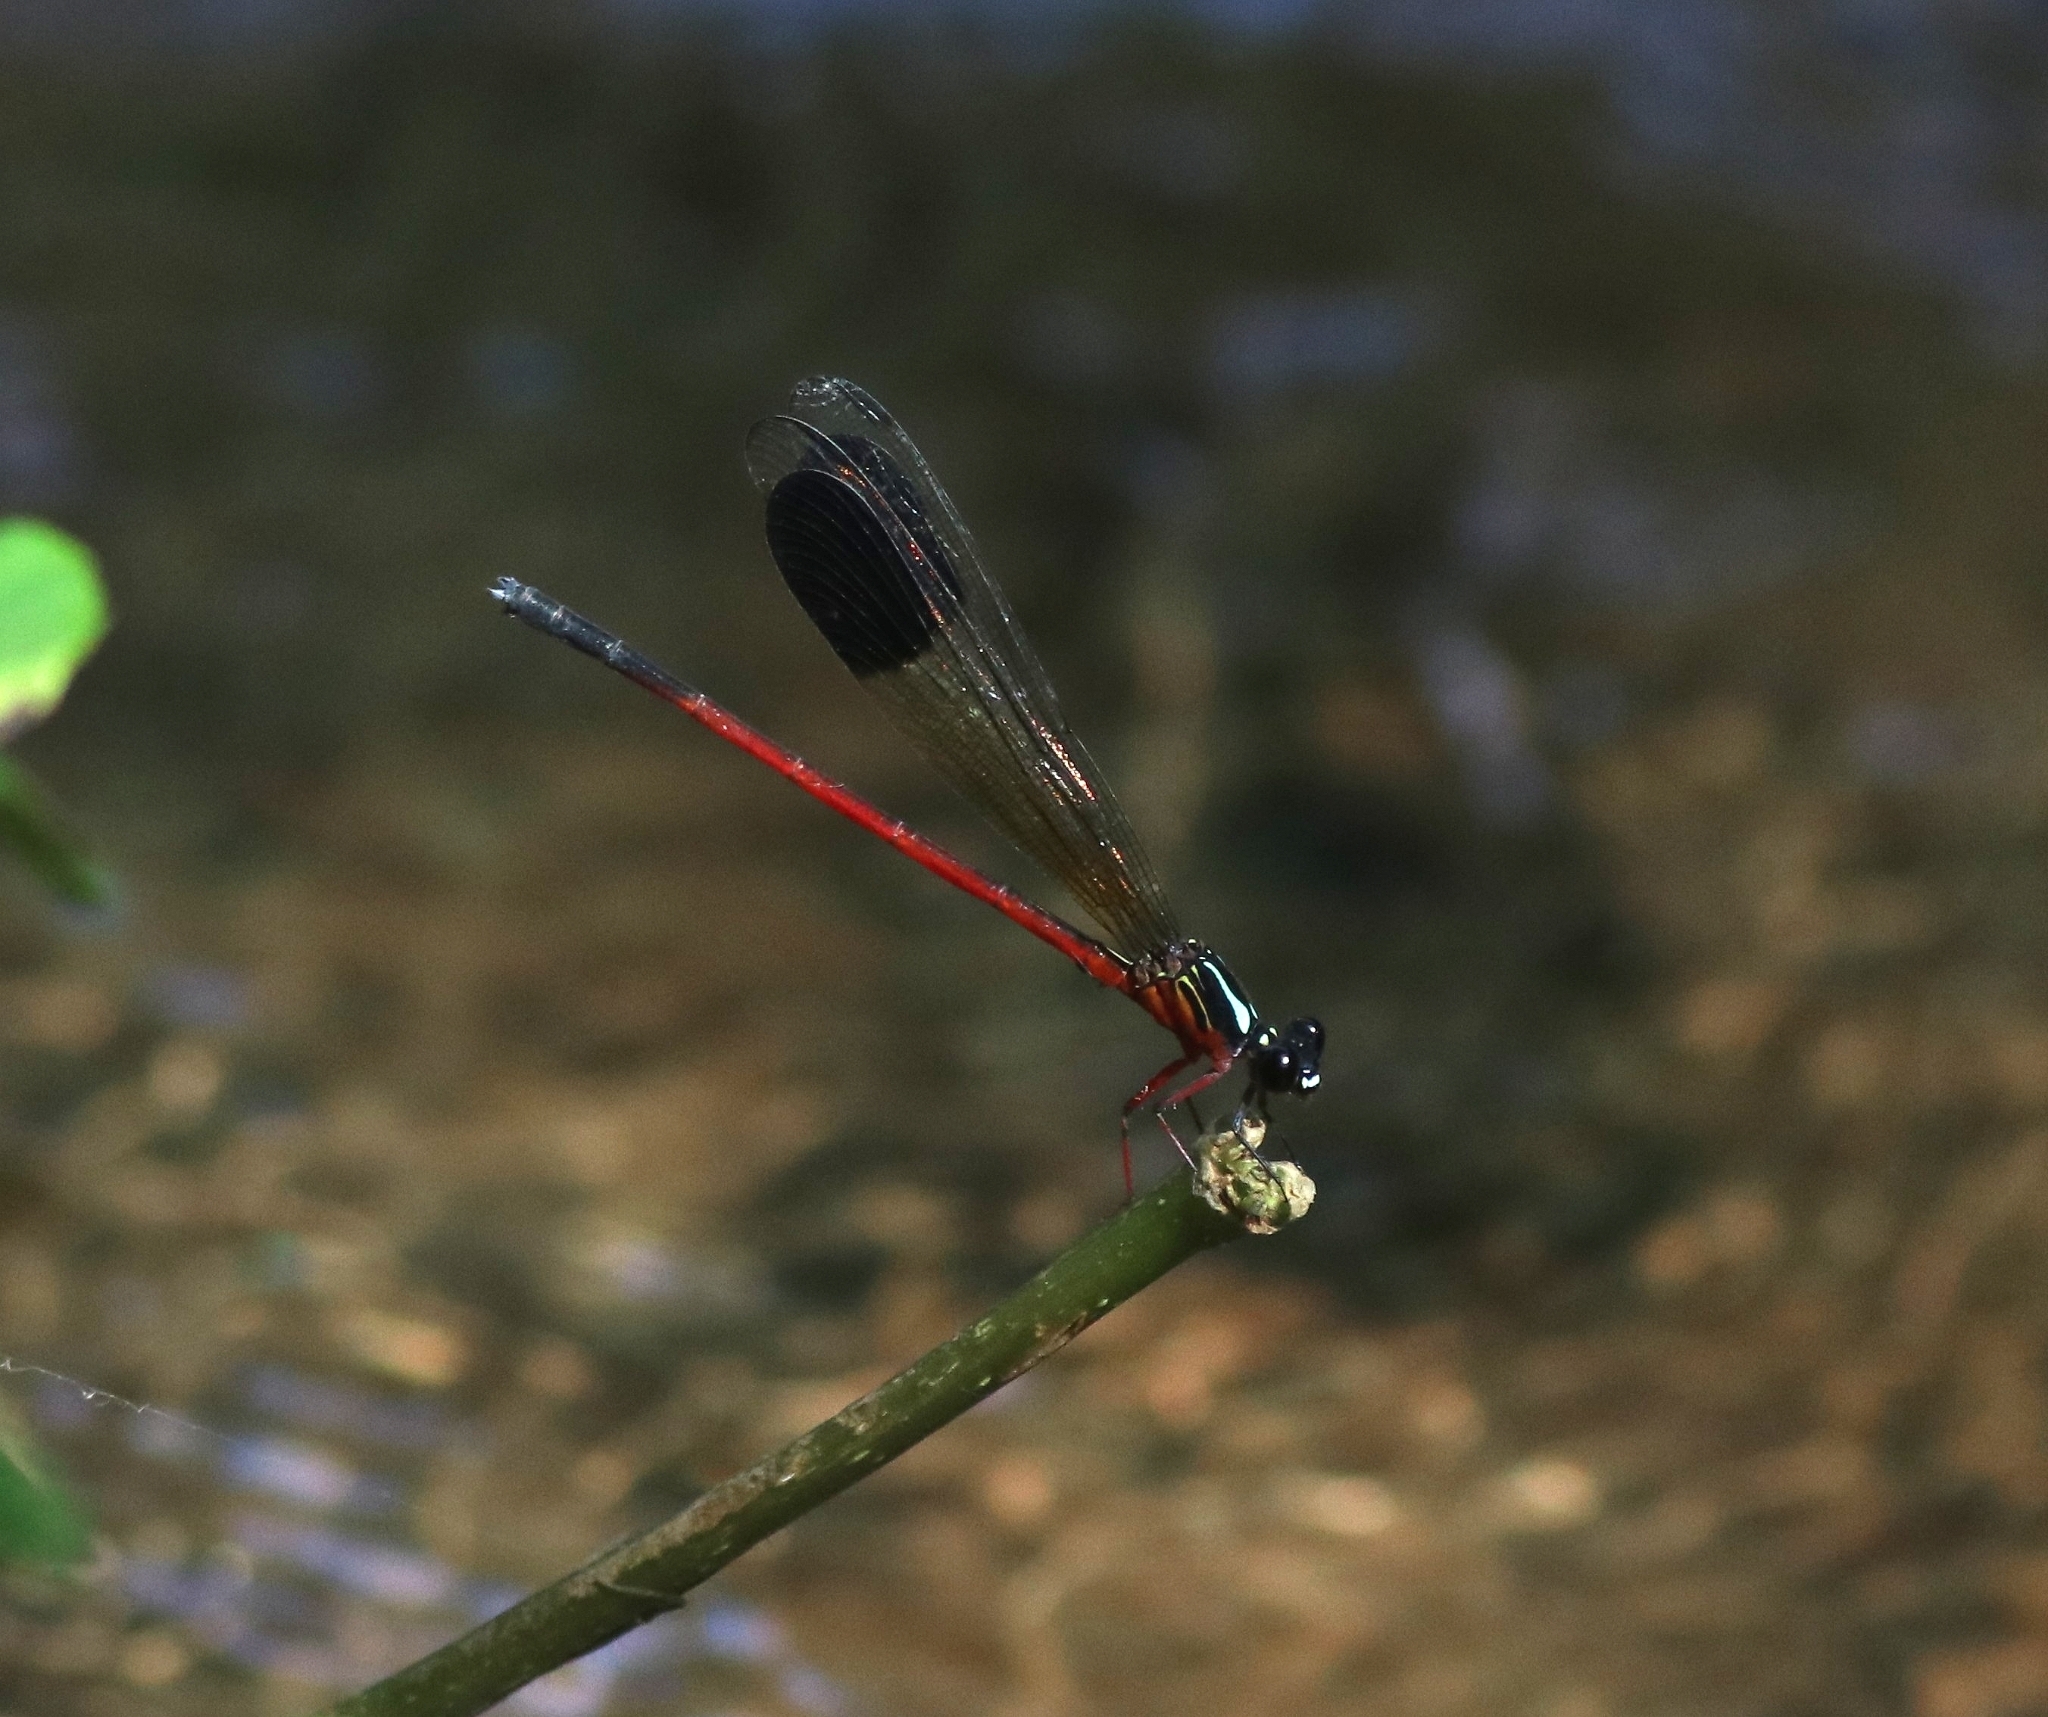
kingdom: Animalia
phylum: Arthropoda
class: Insecta
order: Odonata
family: Euphaeidae
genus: Euphaea
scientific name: Euphaea fraseri
